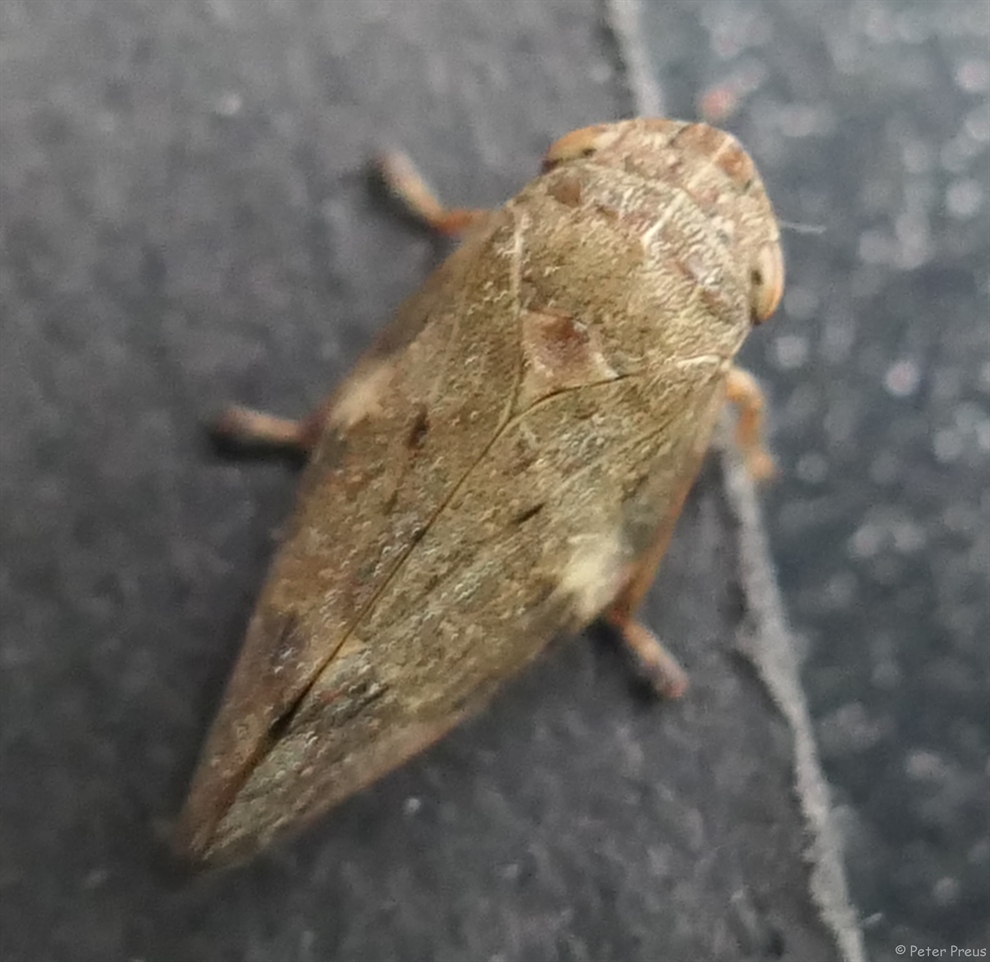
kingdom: Animalia
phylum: Arthropoda
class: Insecta
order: Hemiptera
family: Aphrophoridae
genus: Aphrophora
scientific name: Aphrophora alni
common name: European alder spittlebug
